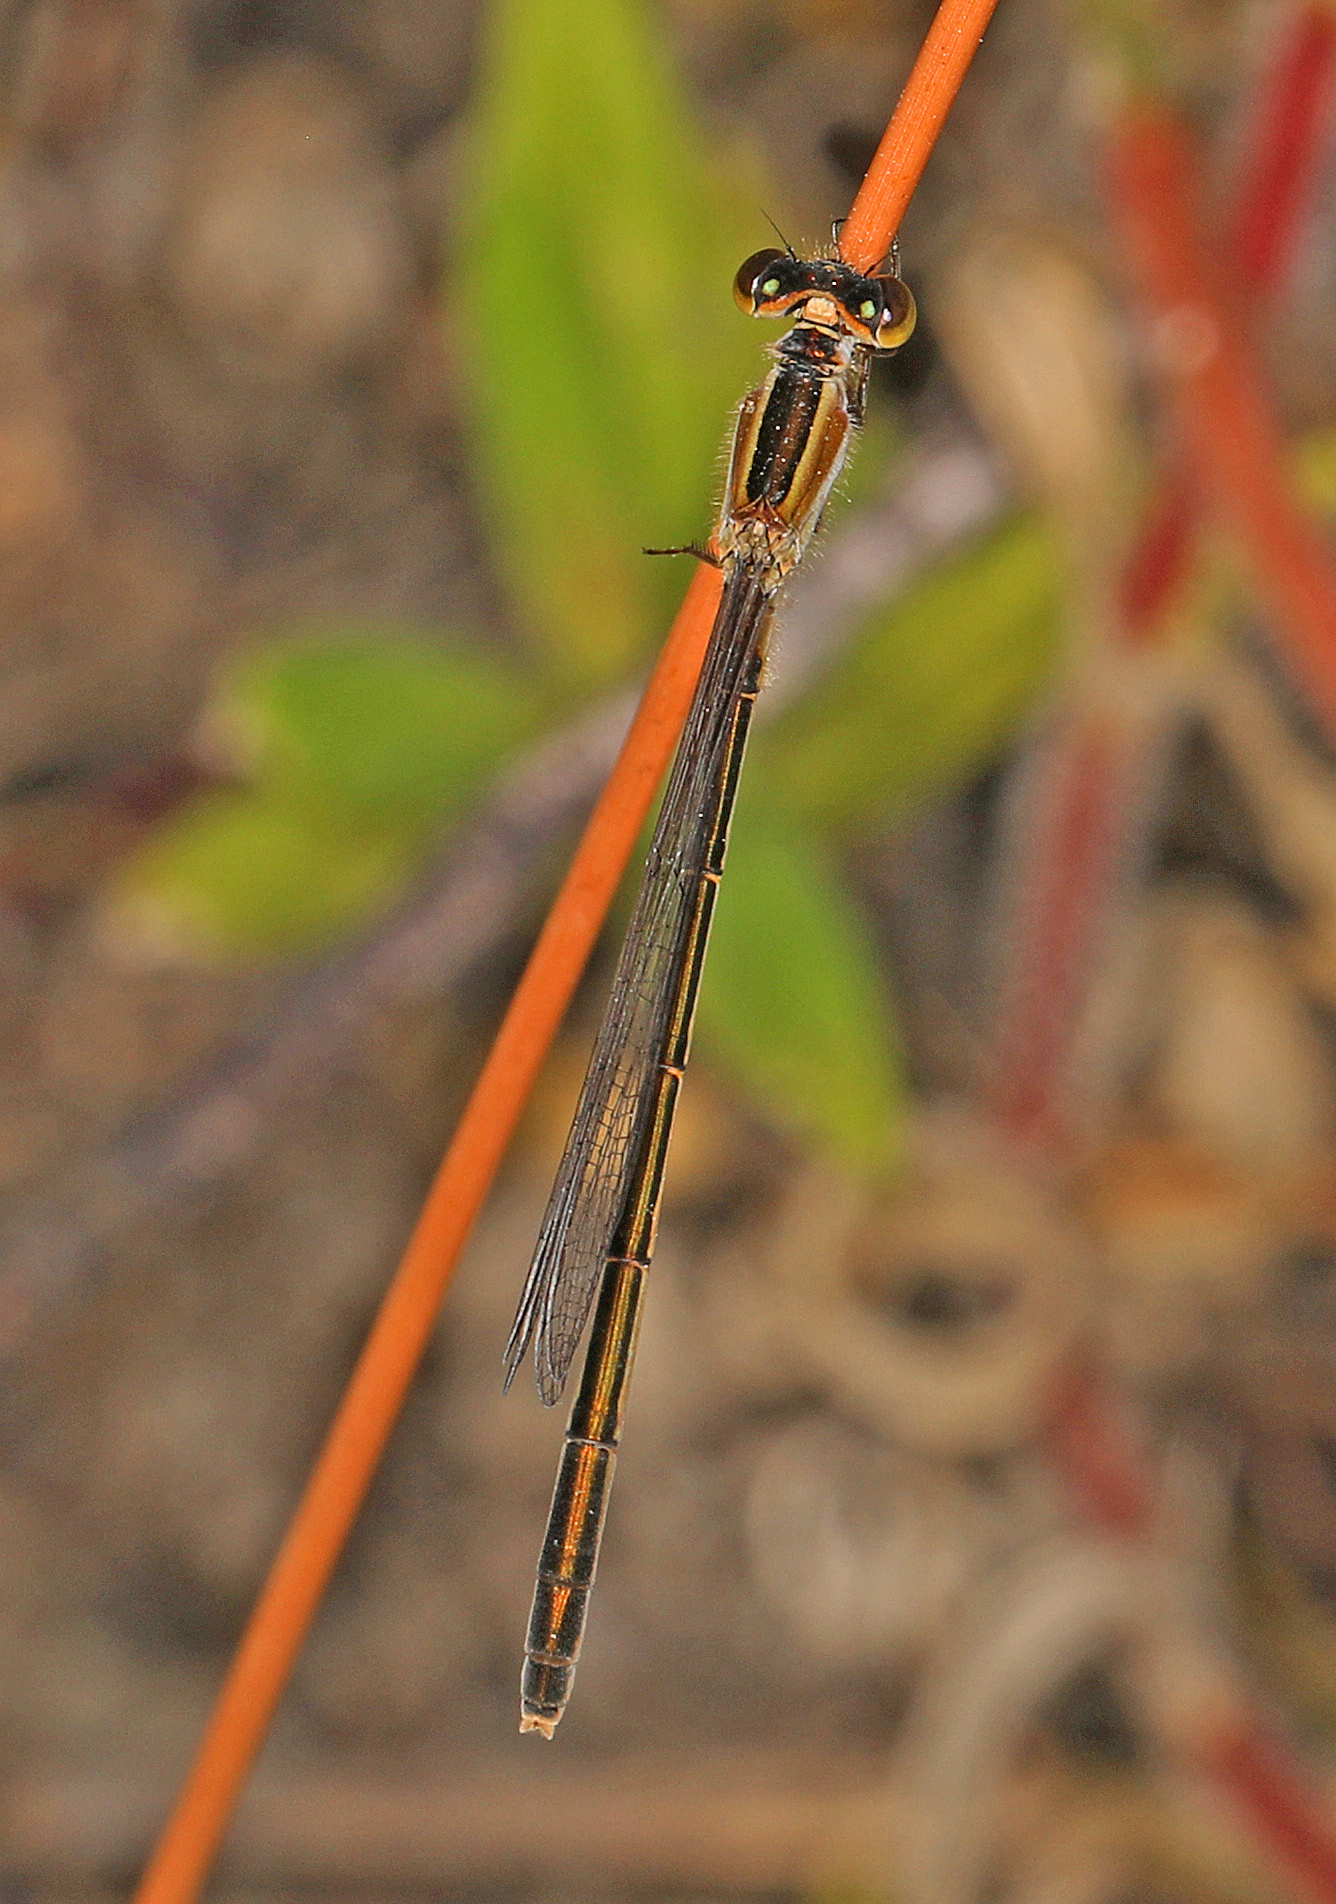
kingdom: Animalia
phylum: Arthropoda
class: Insecta
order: Odonata
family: Coenagrionidae
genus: Ischnura
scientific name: Ischnura ramburii
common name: Rambur's forktail
